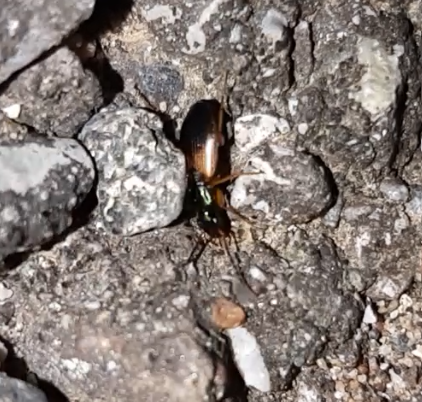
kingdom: Animalia
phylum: Arthropoda
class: Insecta
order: Coleoptera
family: Carabidae
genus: Anchomenus
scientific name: Anchomenus dorsalis
